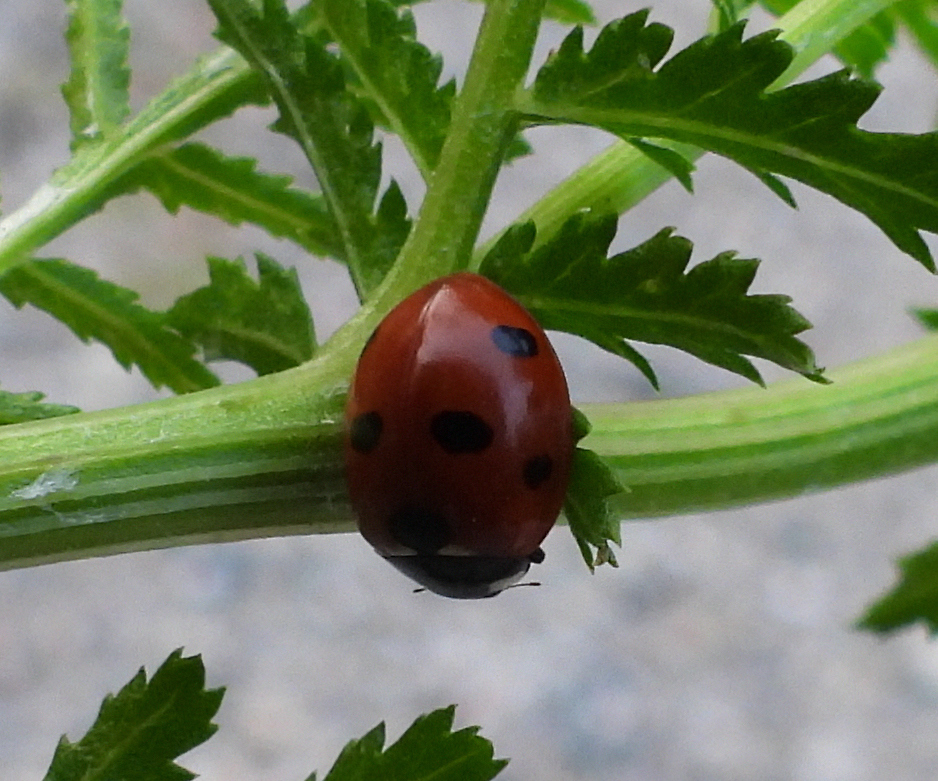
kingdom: Animalia
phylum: Arthropoda
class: Insecta
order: Coleoptera
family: Coccinellidae
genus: Coccinella
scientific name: Coccinella septempunctata
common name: Sevenspotted lady beetle
